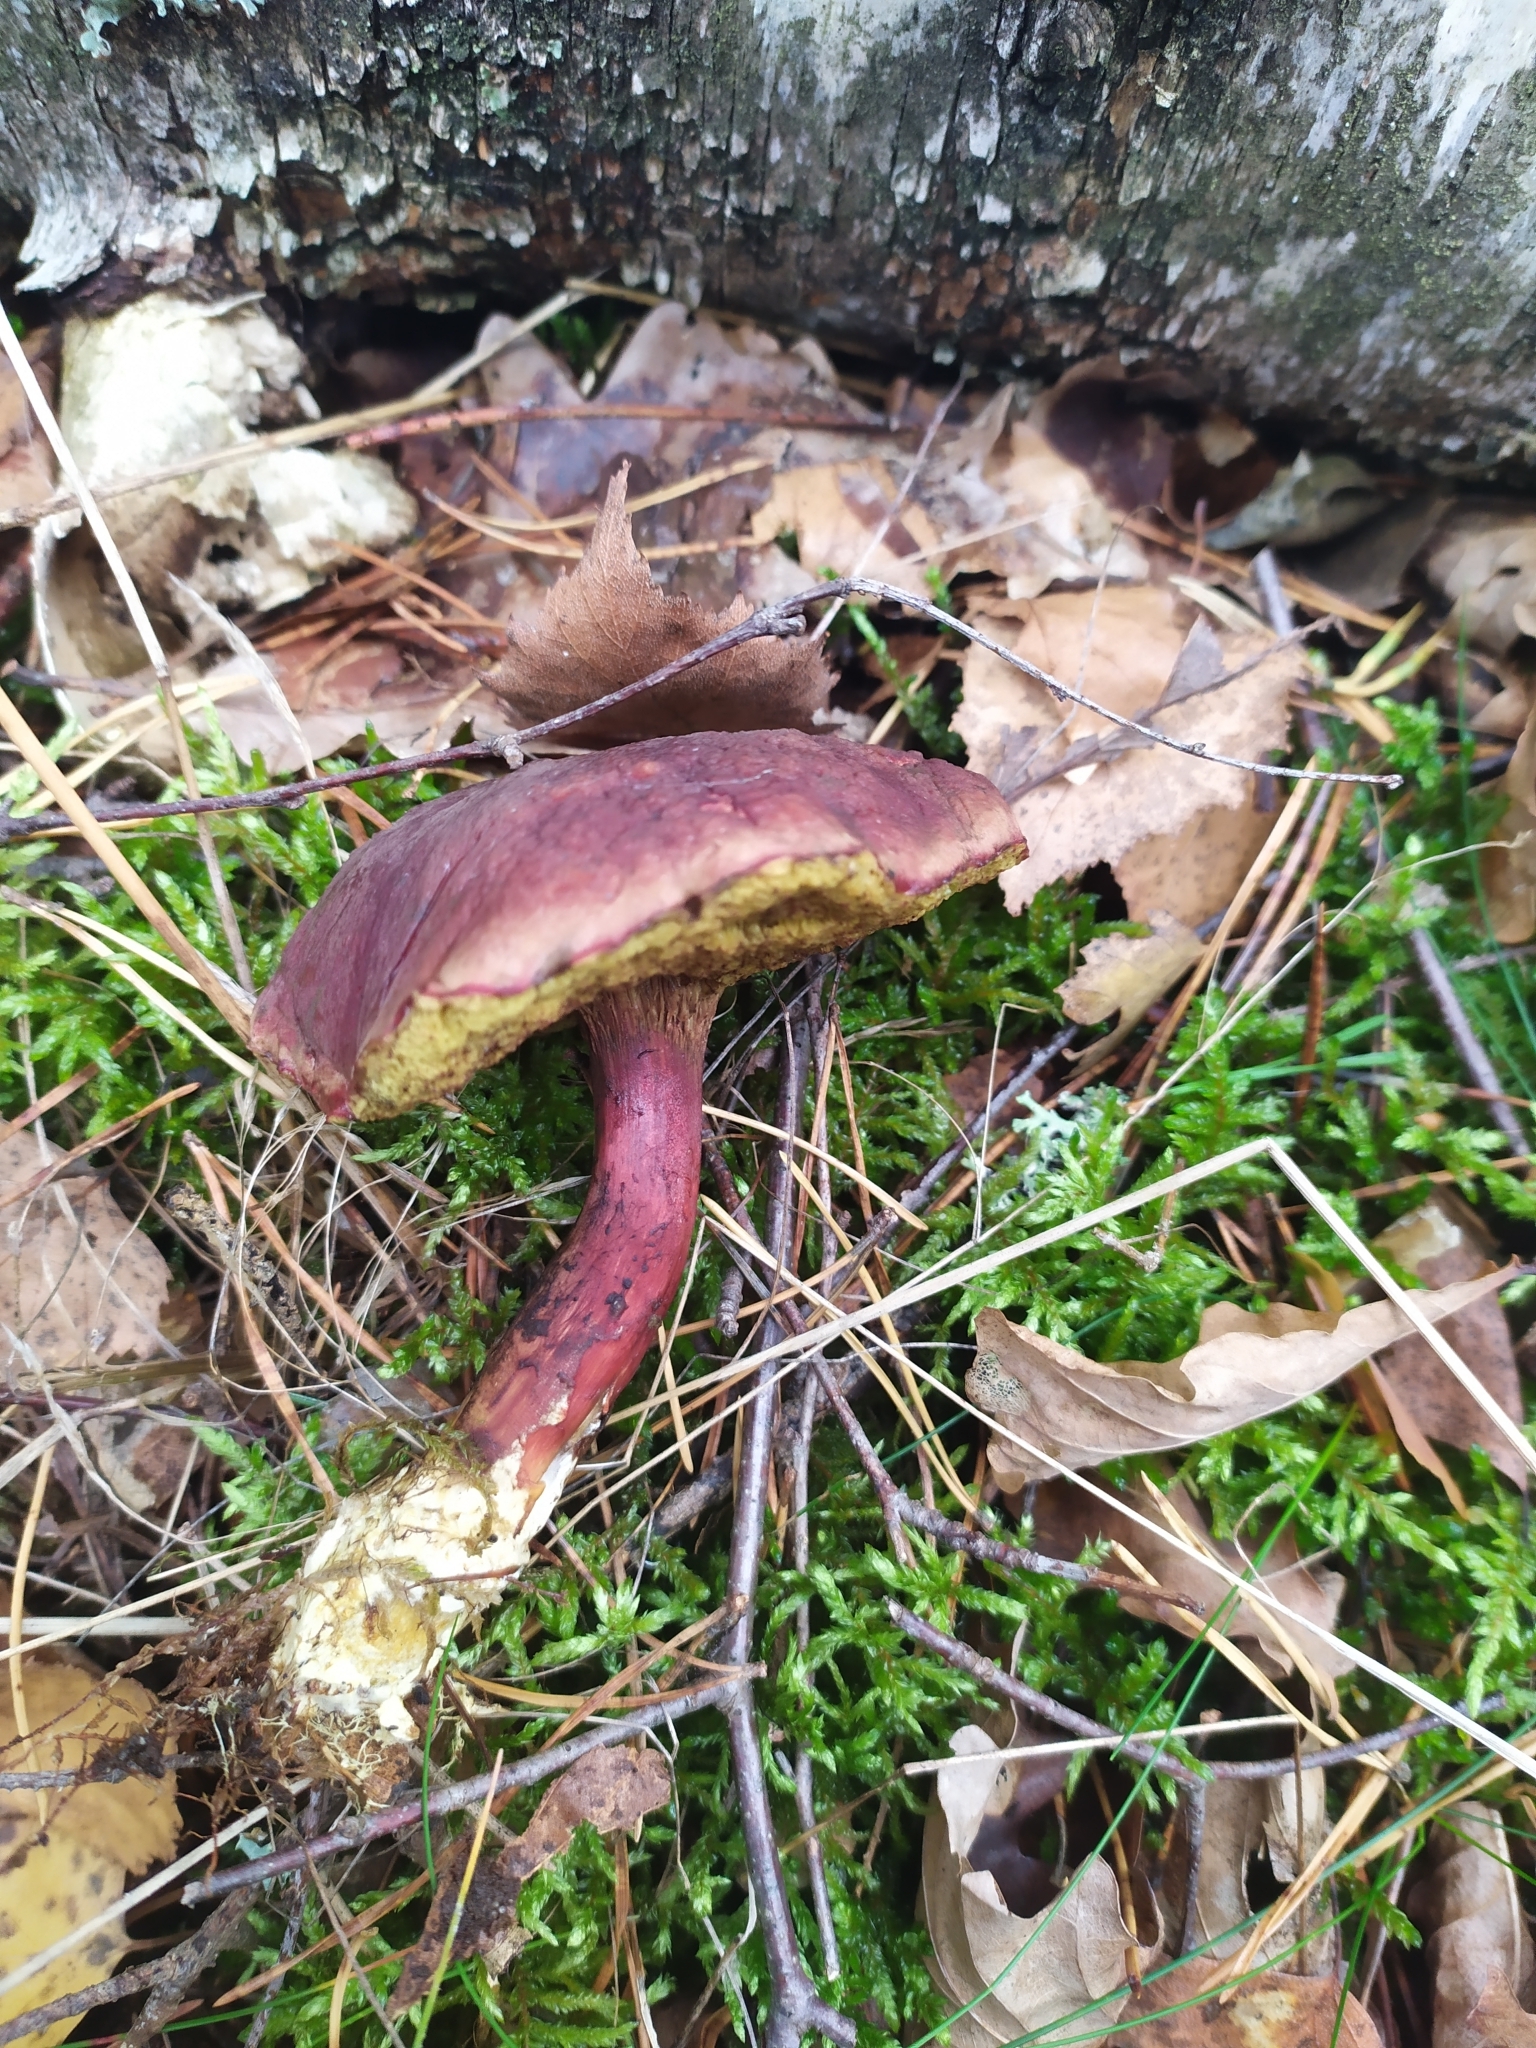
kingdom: Fungi
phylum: Basidiomycota
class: Agaricomycetes
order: Boletales
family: Boletaceae
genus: Xerocomellus
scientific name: Xerocomellus chrysenteron
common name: Red-cracking bolete
